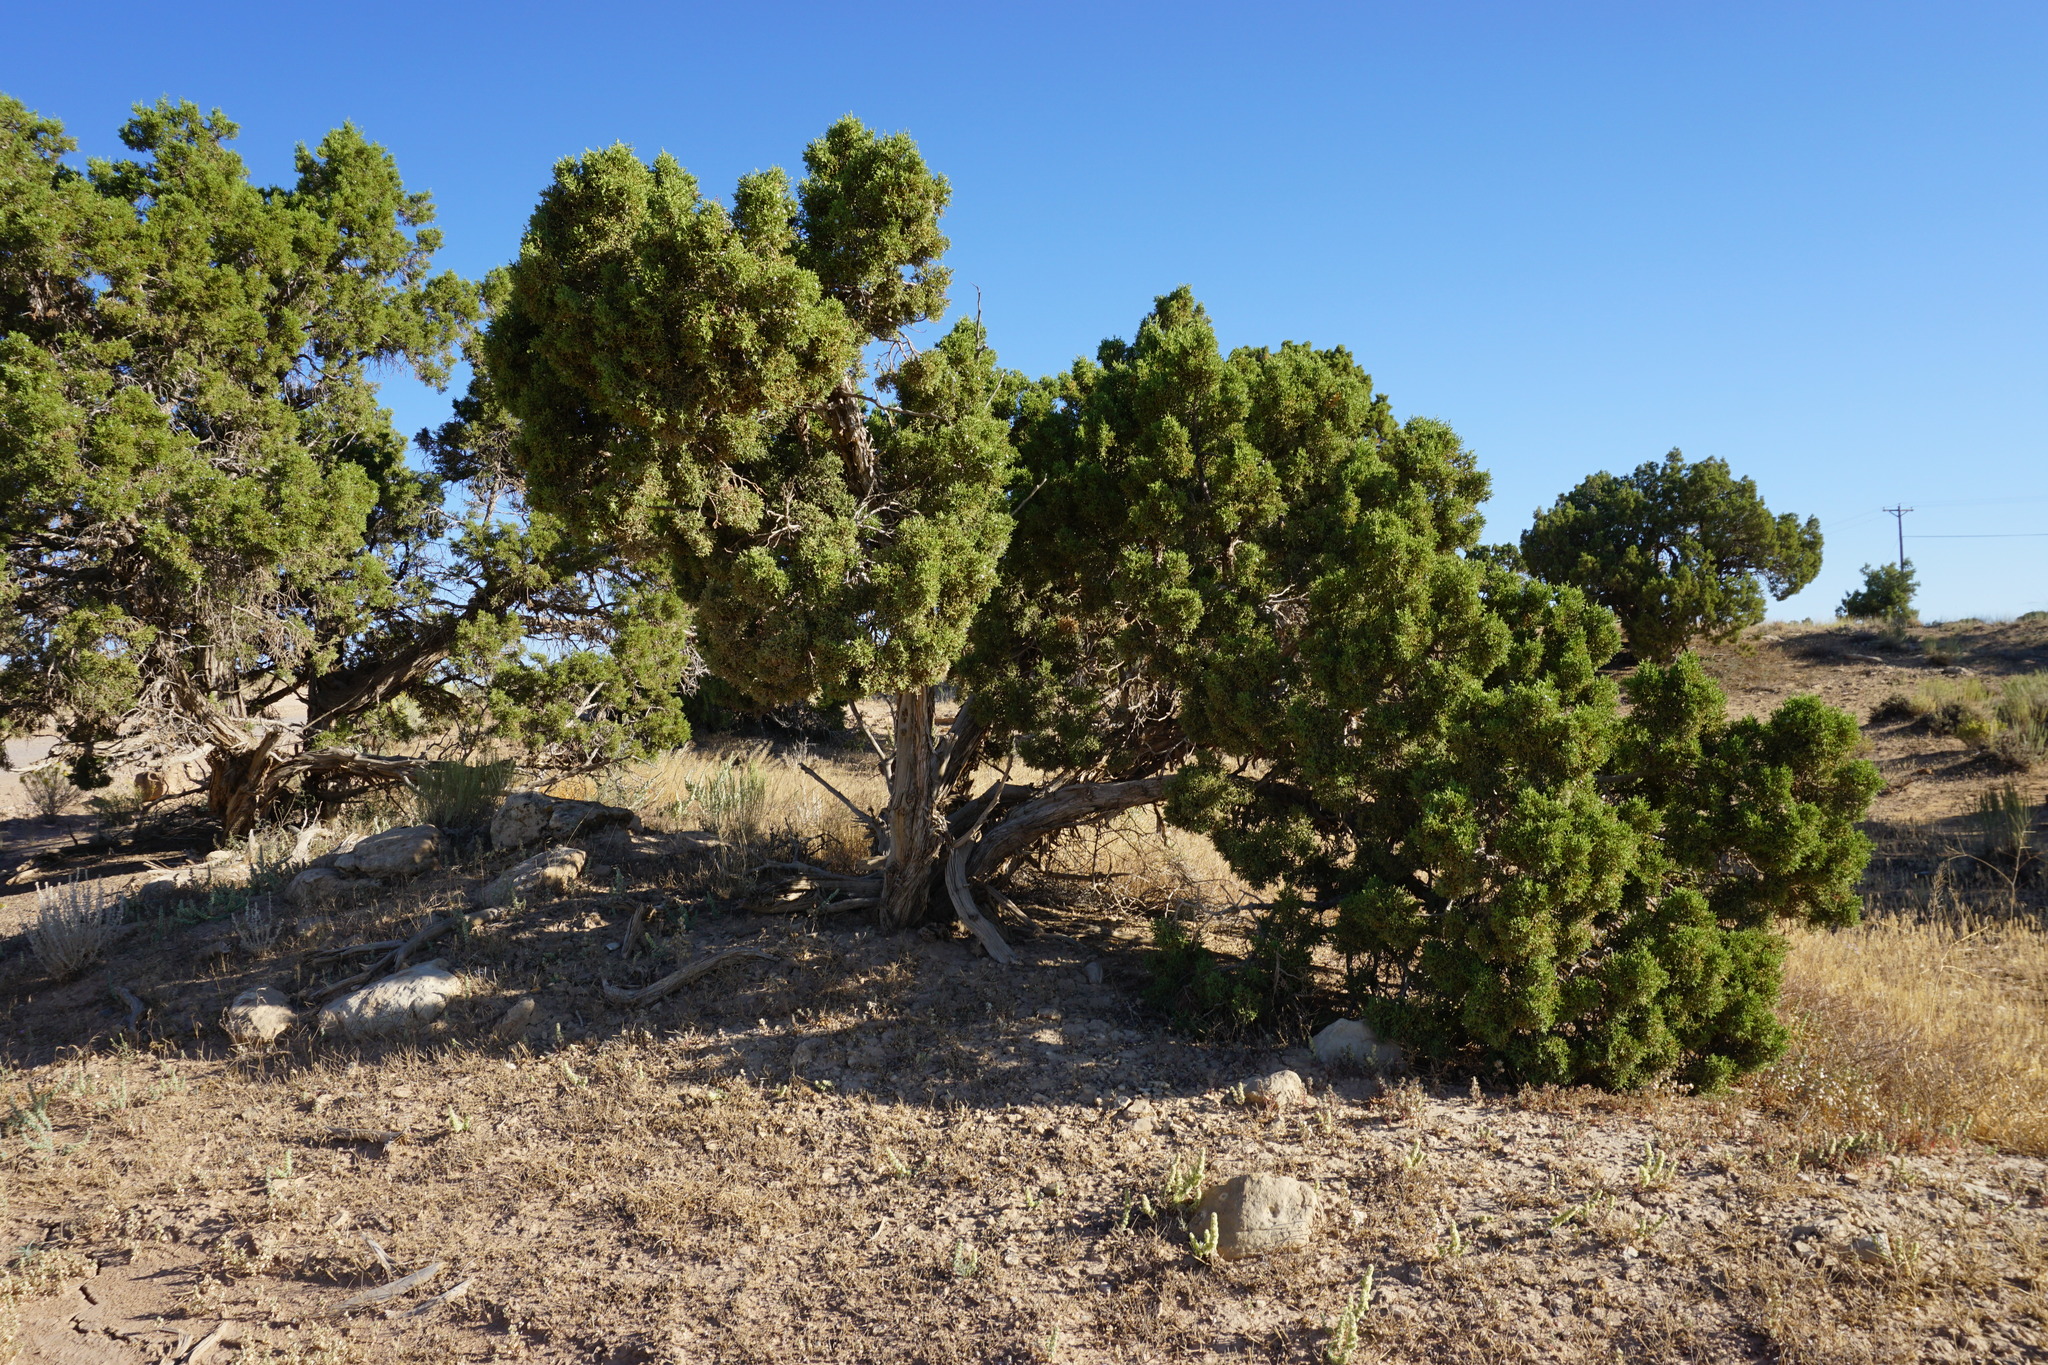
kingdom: Plantae
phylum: Tracheophyta
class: Pinopsida
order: Pinales
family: Cupressaceae
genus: Juniperus
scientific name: Juniperus osteosperma
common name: Utah juniper
